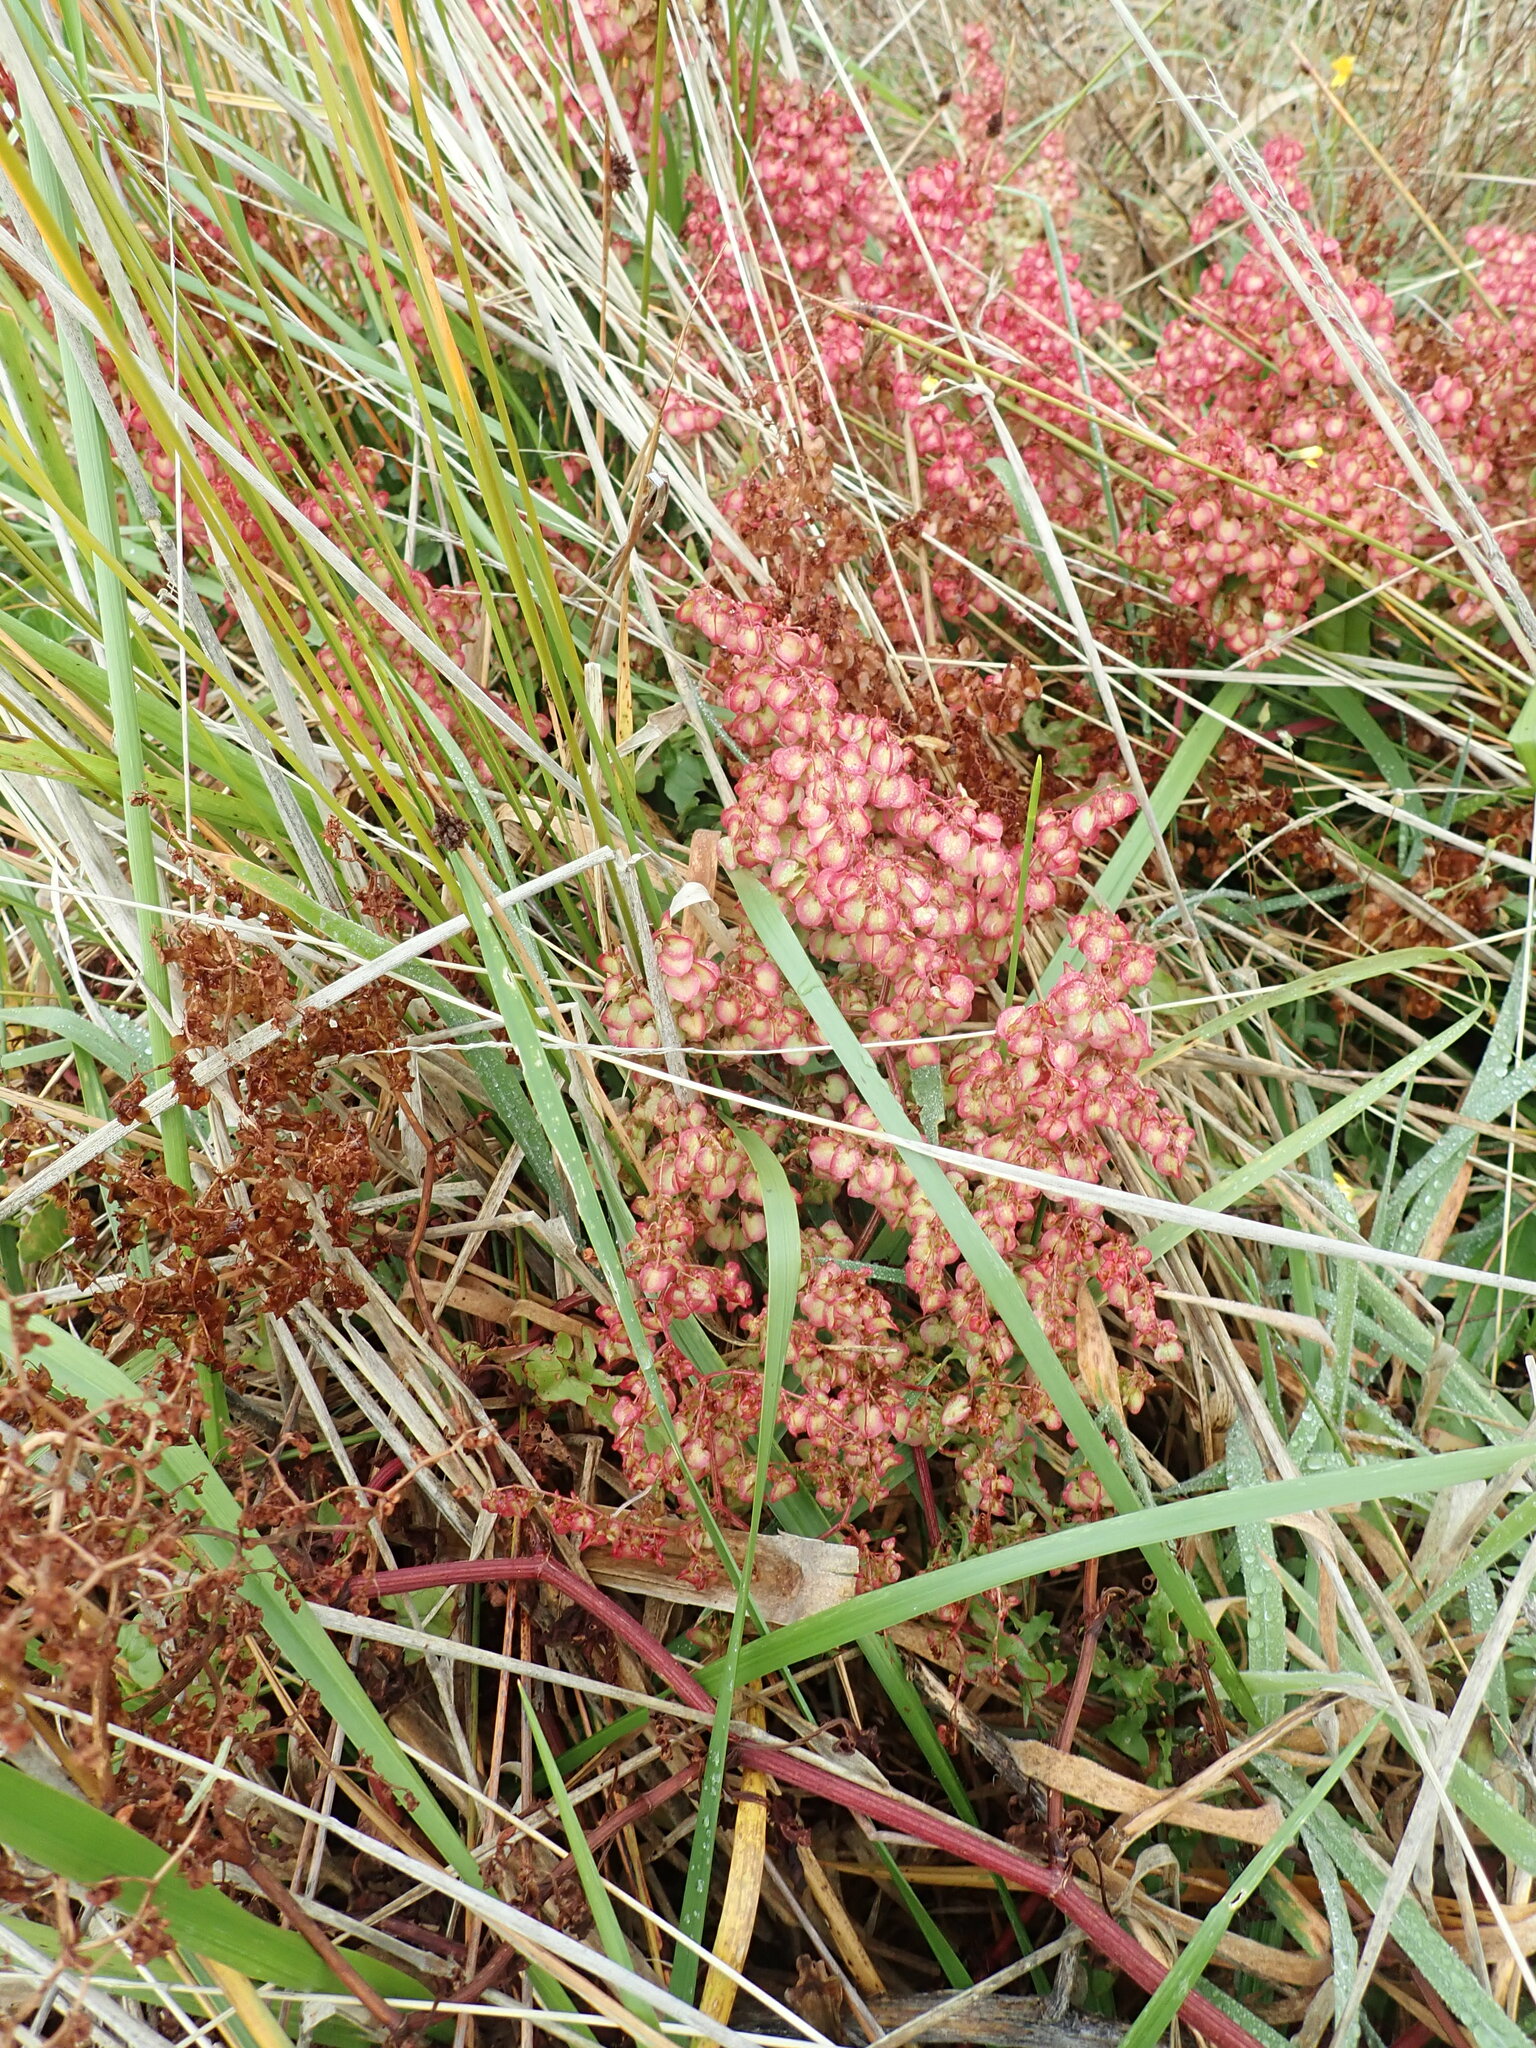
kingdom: Plantae
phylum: Tracheophyta
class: Magnoliopsida
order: Caryophyllales
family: Polygonaceae
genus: Rumex
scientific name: Rumex sagittatus
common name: Climbing dock
